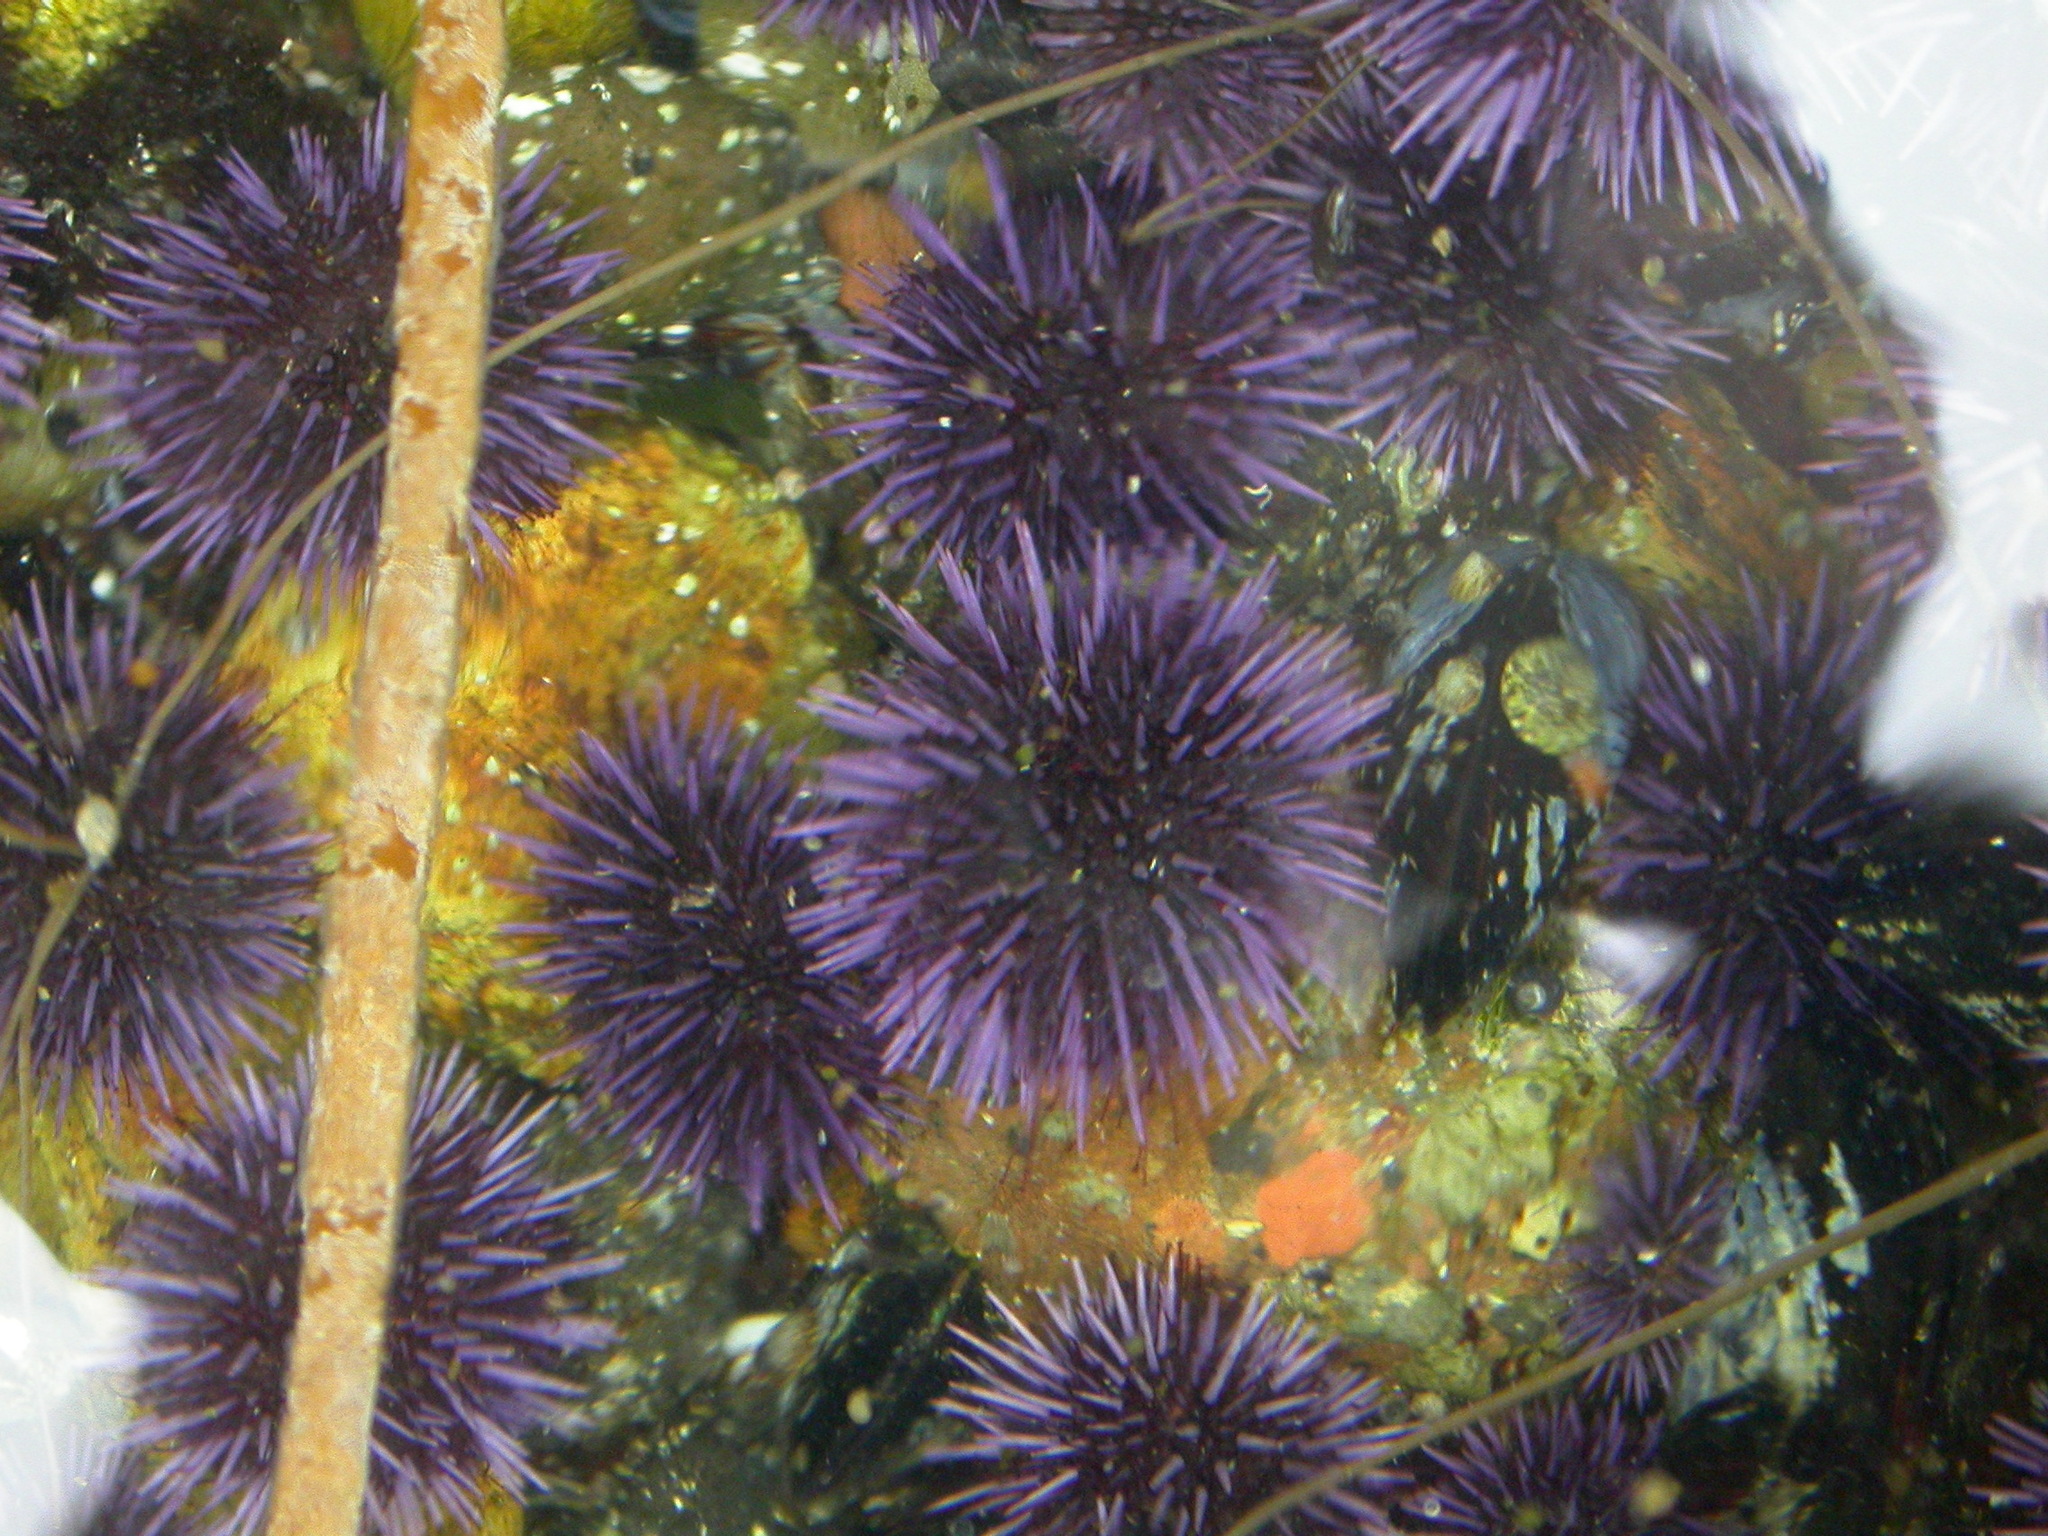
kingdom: Animalia
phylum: Echinodermata
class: Echinoidea
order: Camarodonta
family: Strongylocentrotidae
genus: Strongylocentrotus
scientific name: Strongylocentrotus purpuratus
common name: Purple sea urchin
